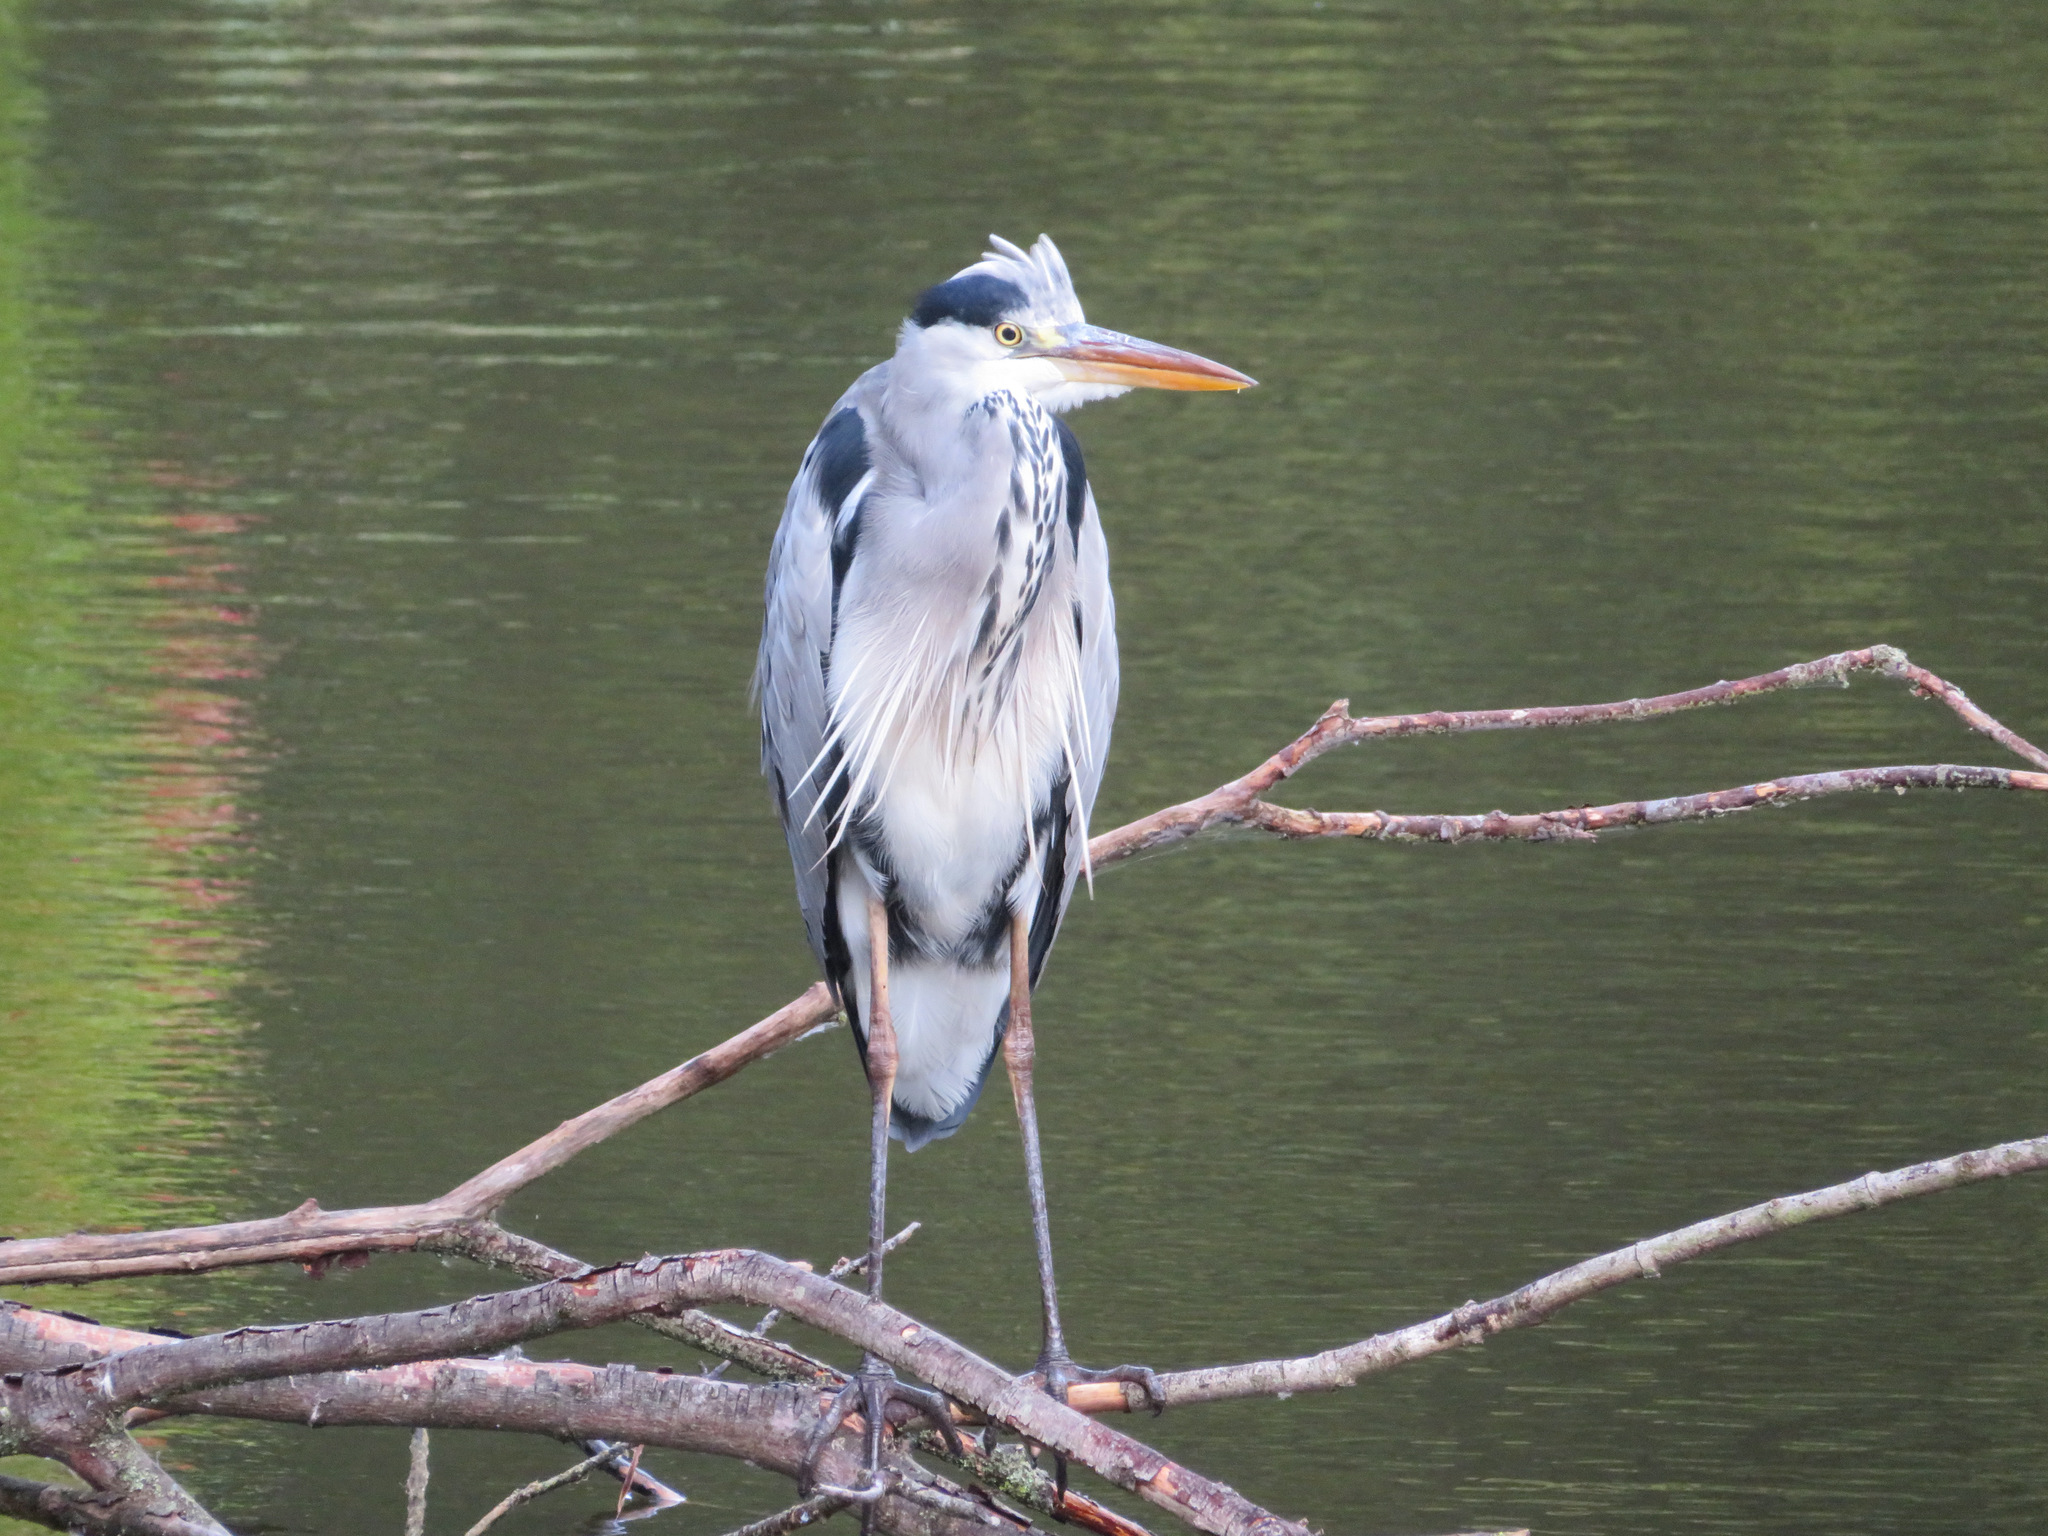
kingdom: Animalia
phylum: Chordata
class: Aves
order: Pelecaniformes
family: Ardeidae
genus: Ardea
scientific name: Ardea cinerea
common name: Grey heron
